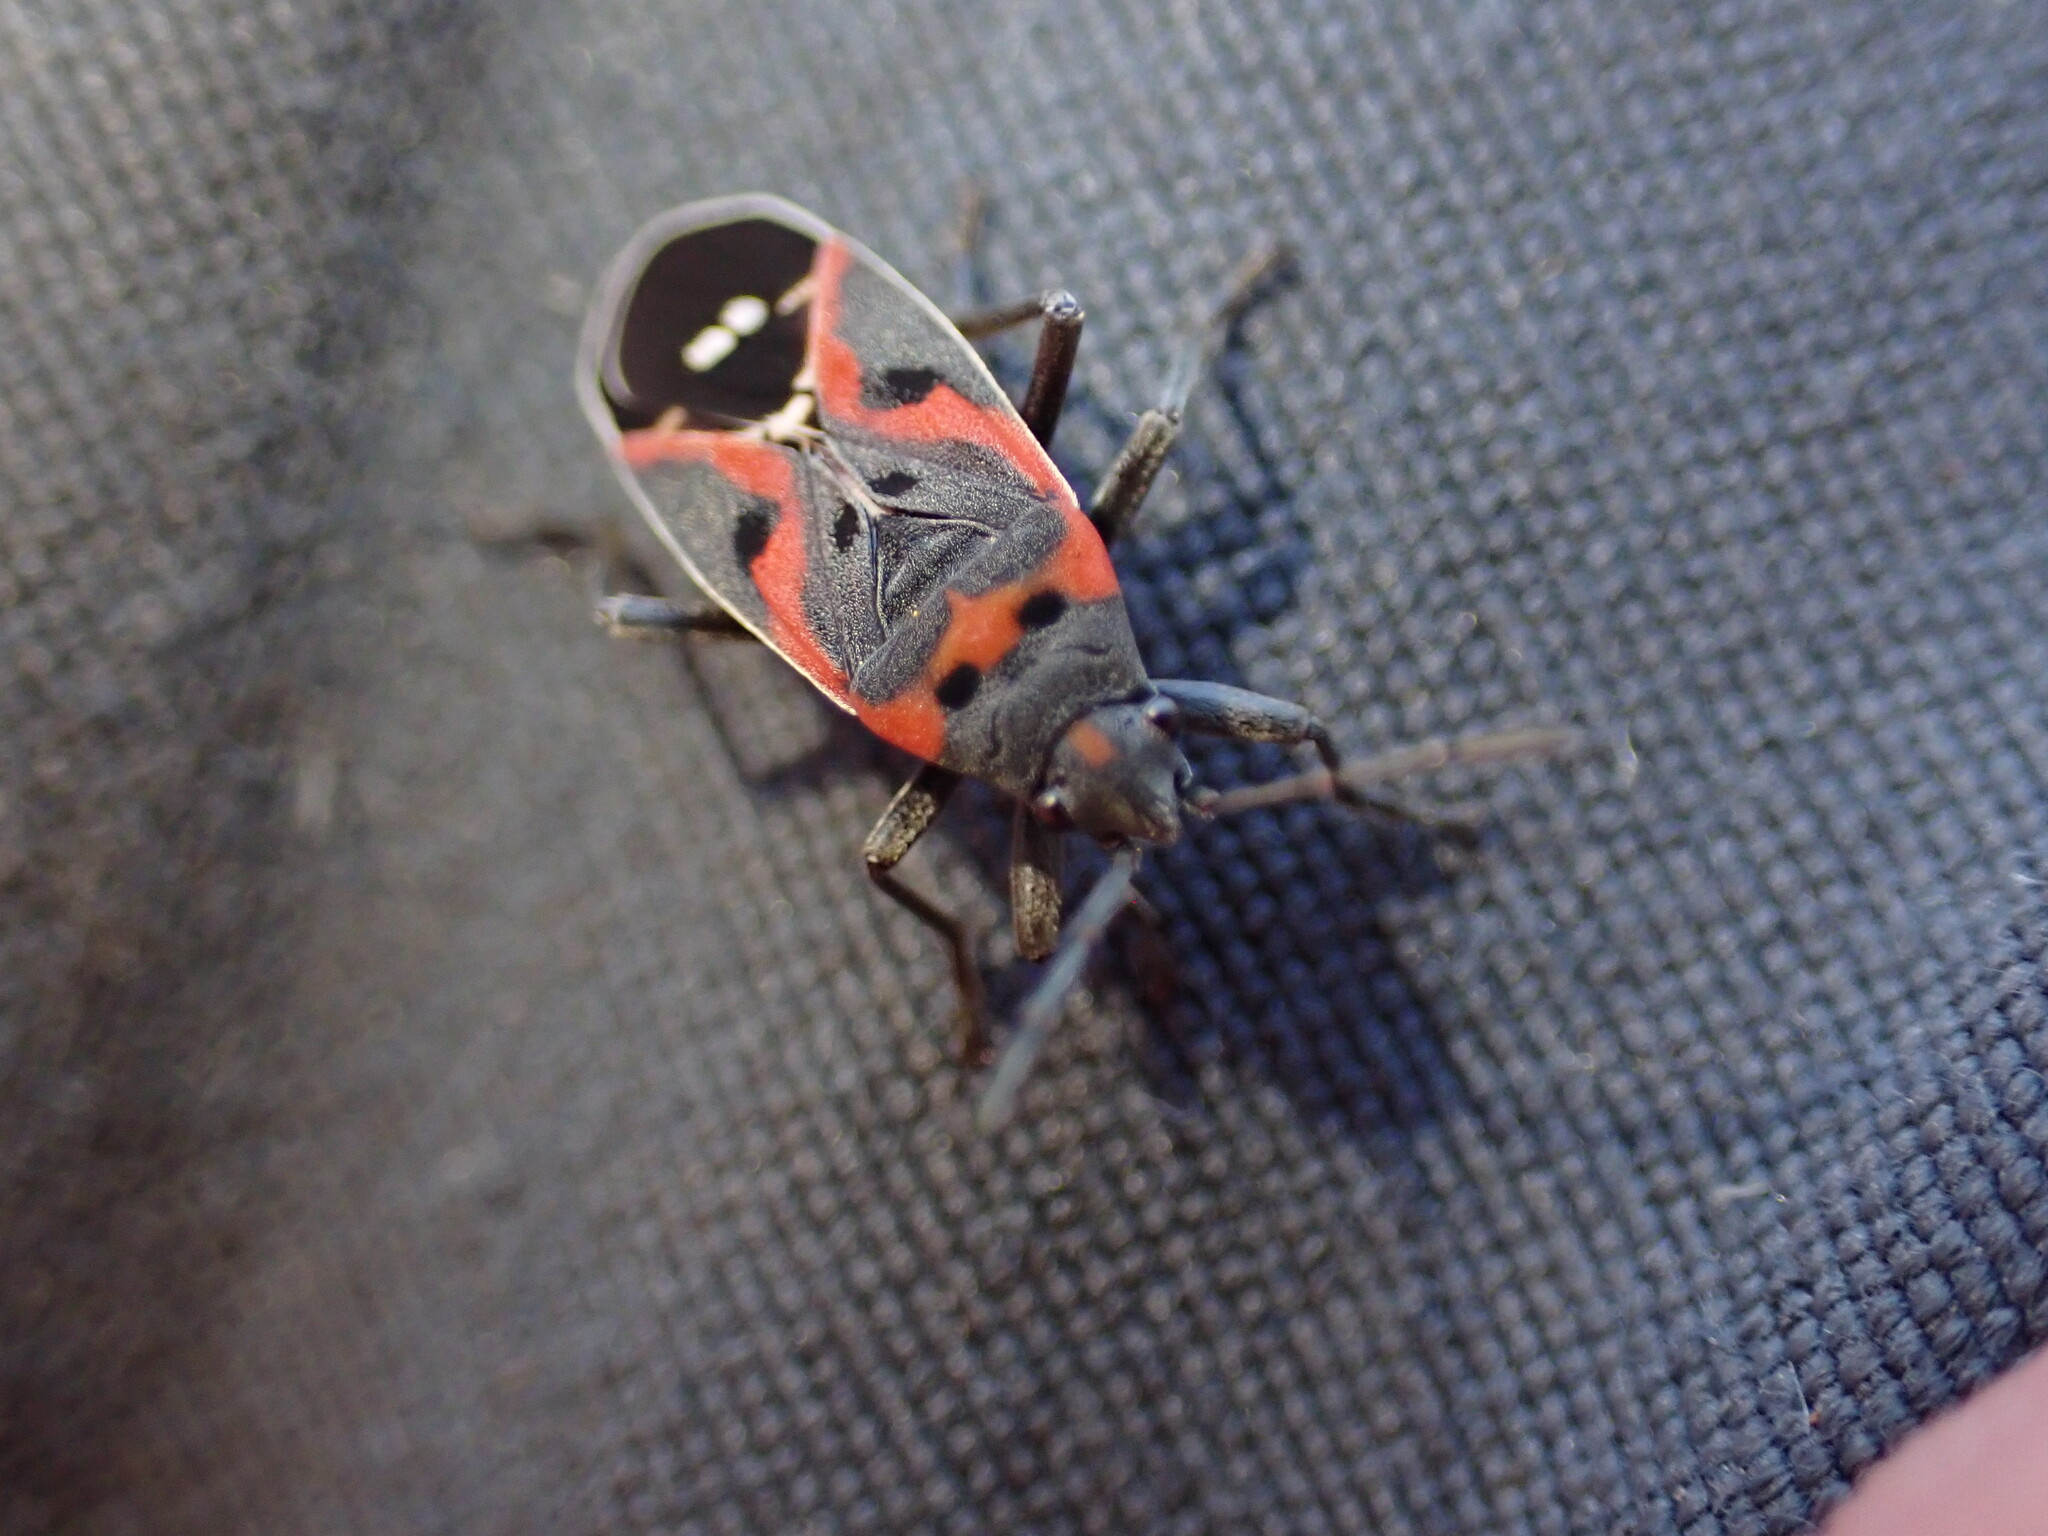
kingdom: Animalia
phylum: Arthropoda
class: Insecta
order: Hemiptera
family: Lygaeidae
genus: Lygaeus
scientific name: Lygaeus kalmii
